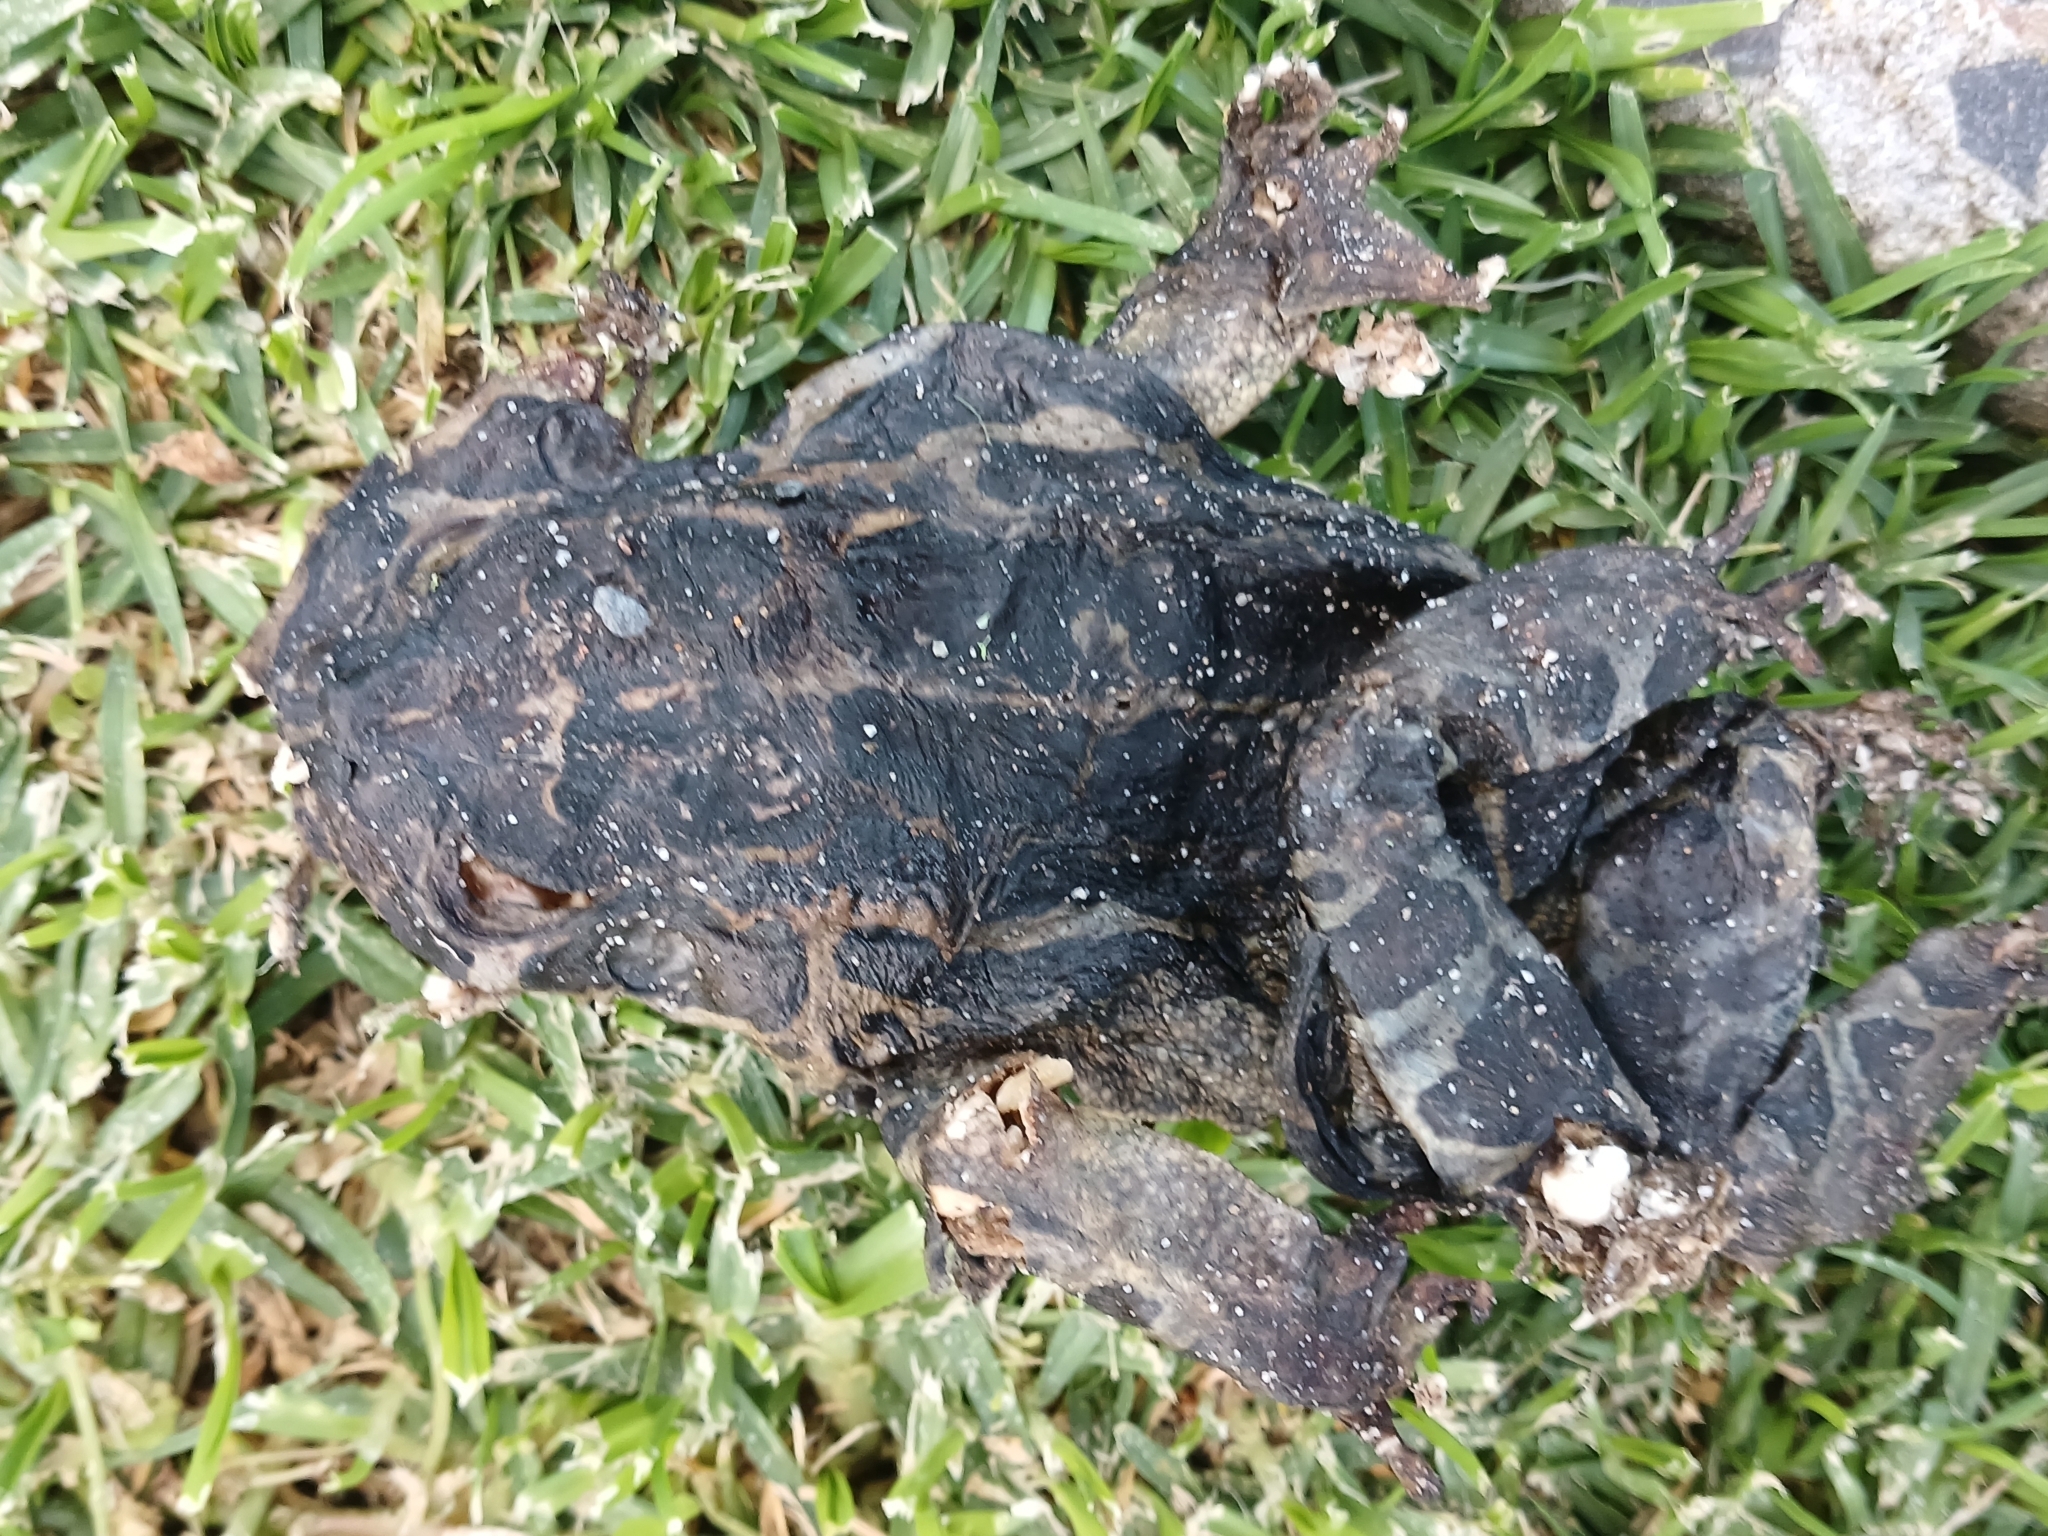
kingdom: Animalia
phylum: Chordata
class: Amphibia
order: Anura
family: Bufonidae
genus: Sclerophrys
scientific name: Sclerophrys pantherina
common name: Panther toad
